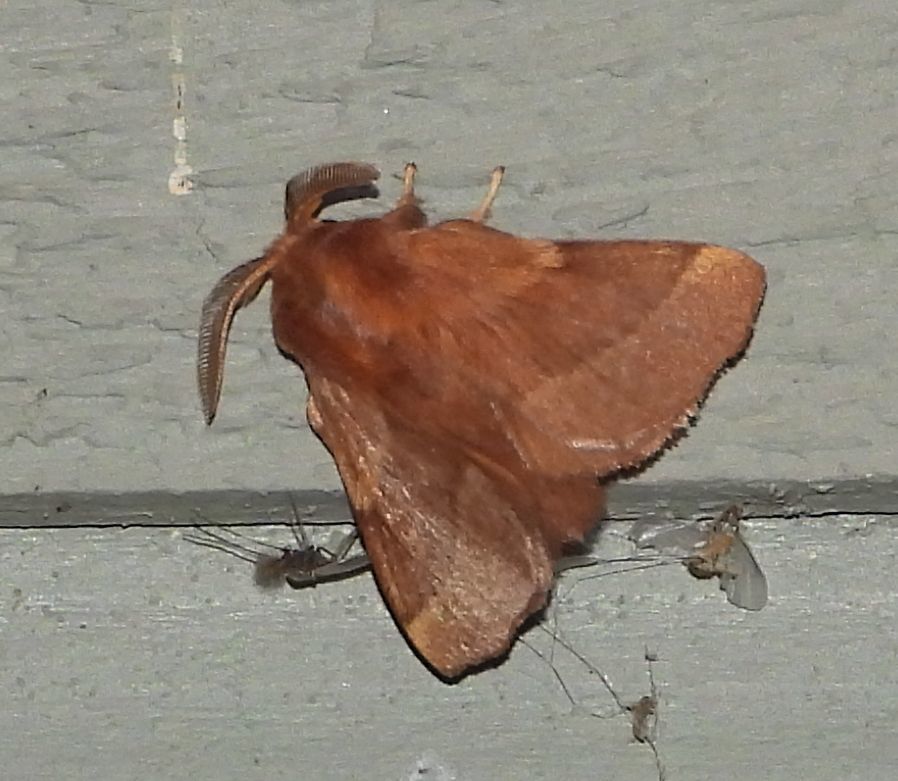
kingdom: Animalia
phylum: Arthropoda
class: Insecta
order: Lepidoptera
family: Lasiocampidae
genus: Malacosoma
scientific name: Malacosoma disstria
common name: Forest tent caterpillar
